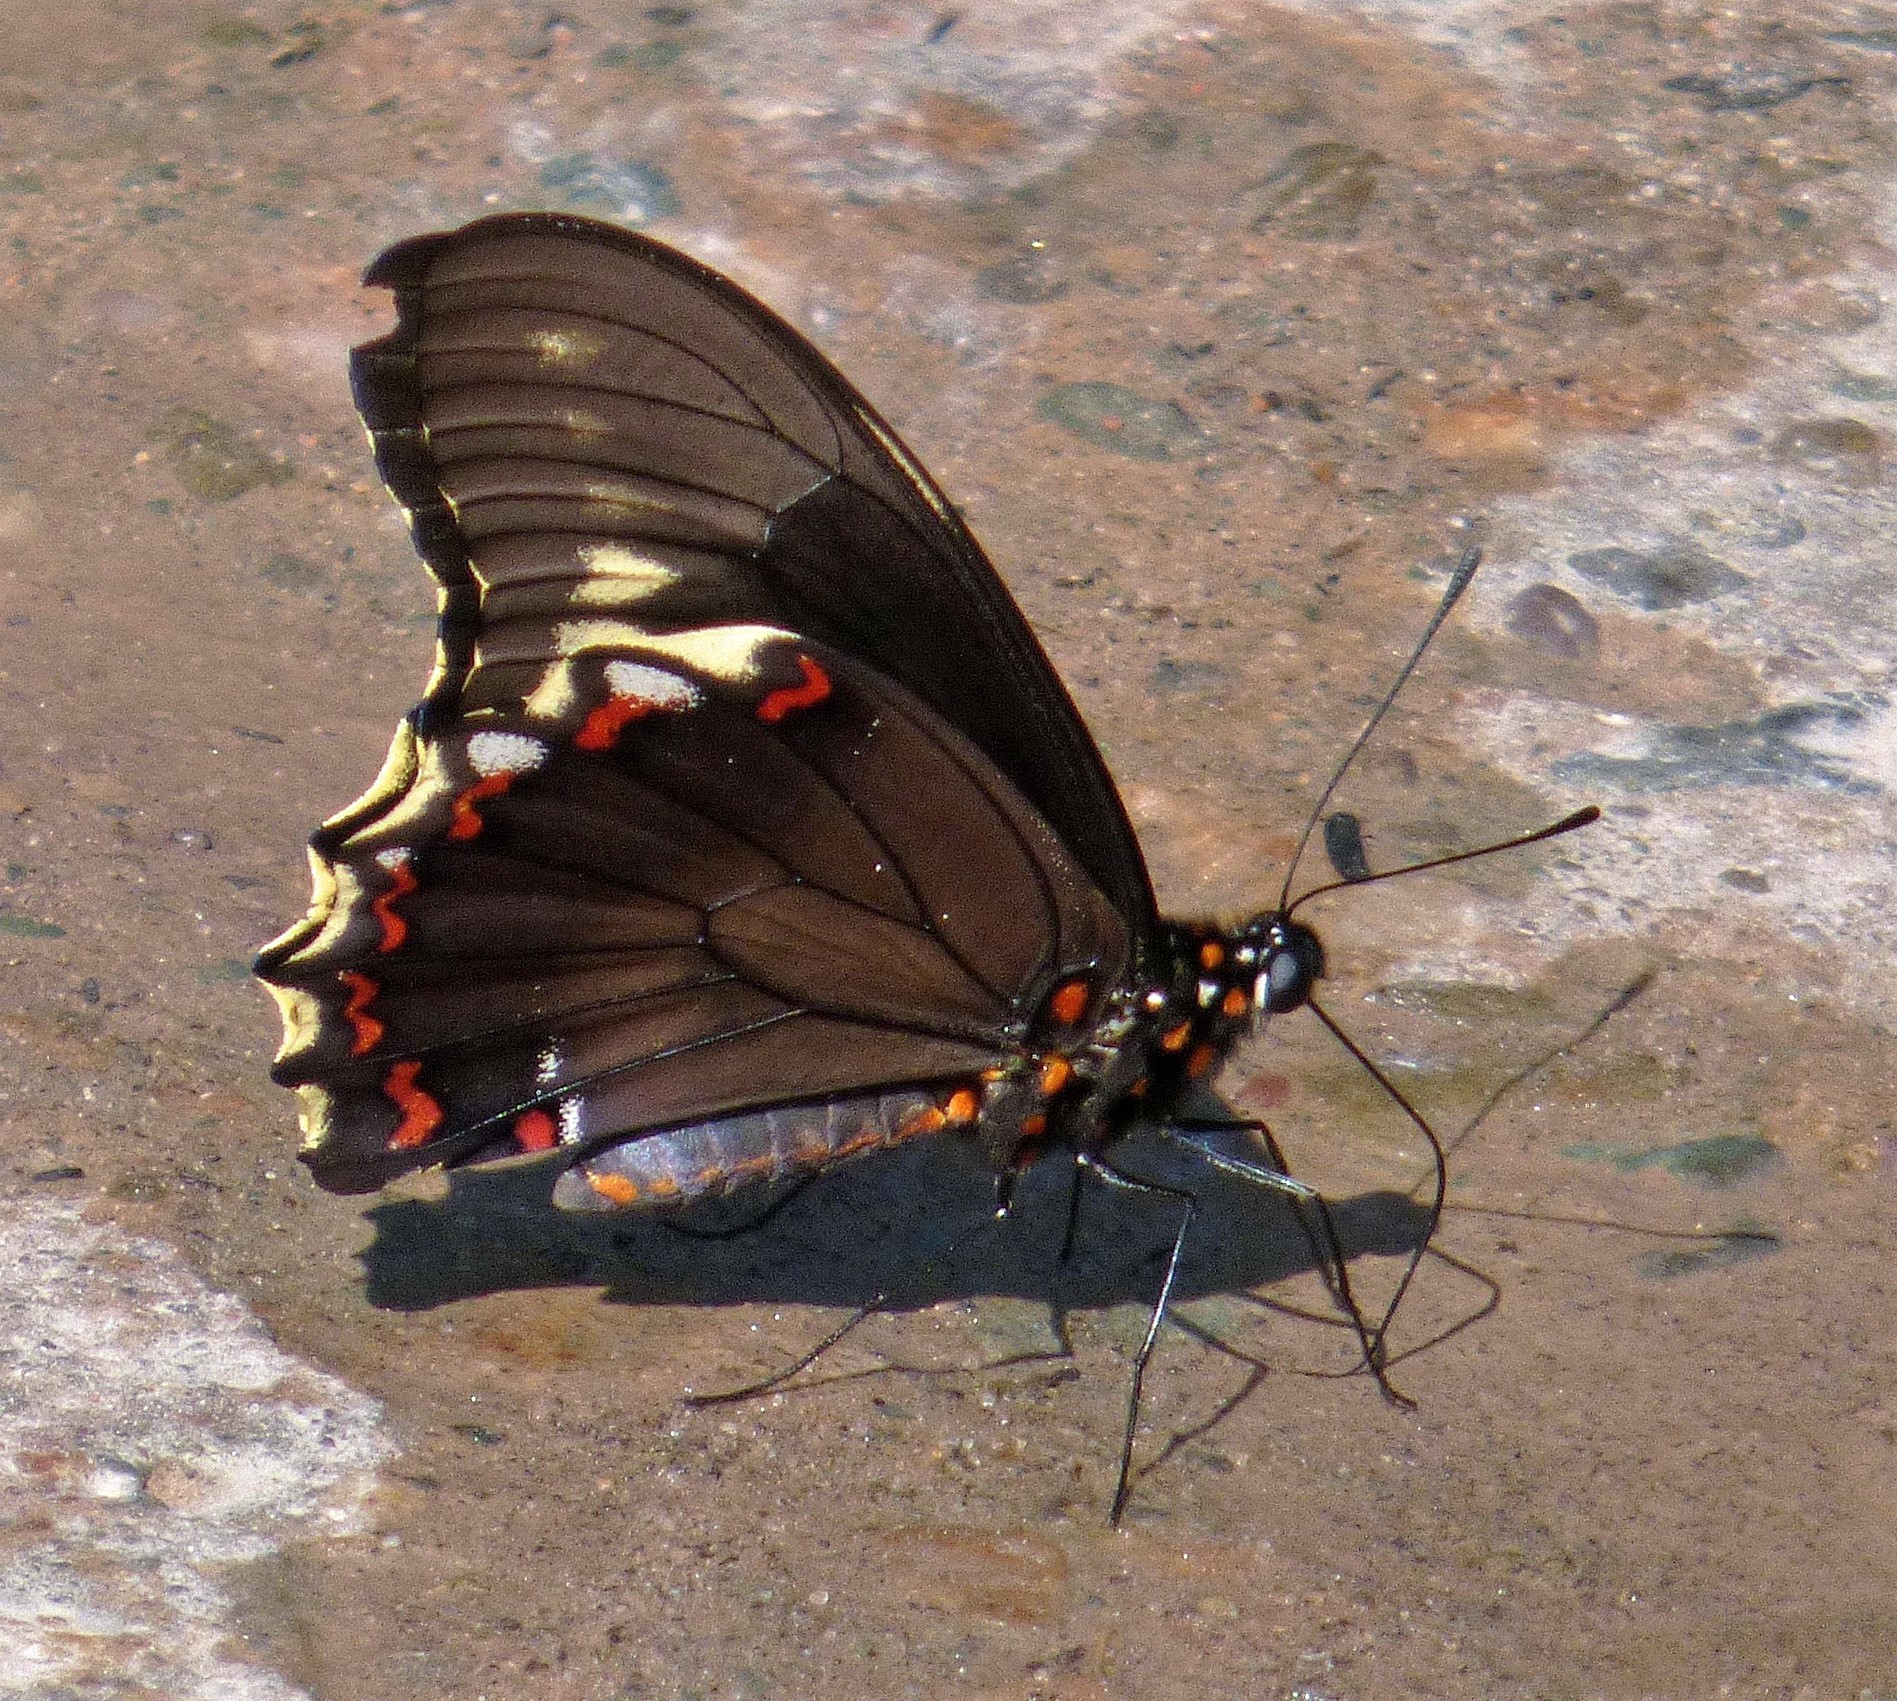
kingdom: Animalia
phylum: Arthropoda
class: Insecta
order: Lepidoptera
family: Papilionidae
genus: Battus
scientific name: Battus polydamas
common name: Polydamas swallowtail
